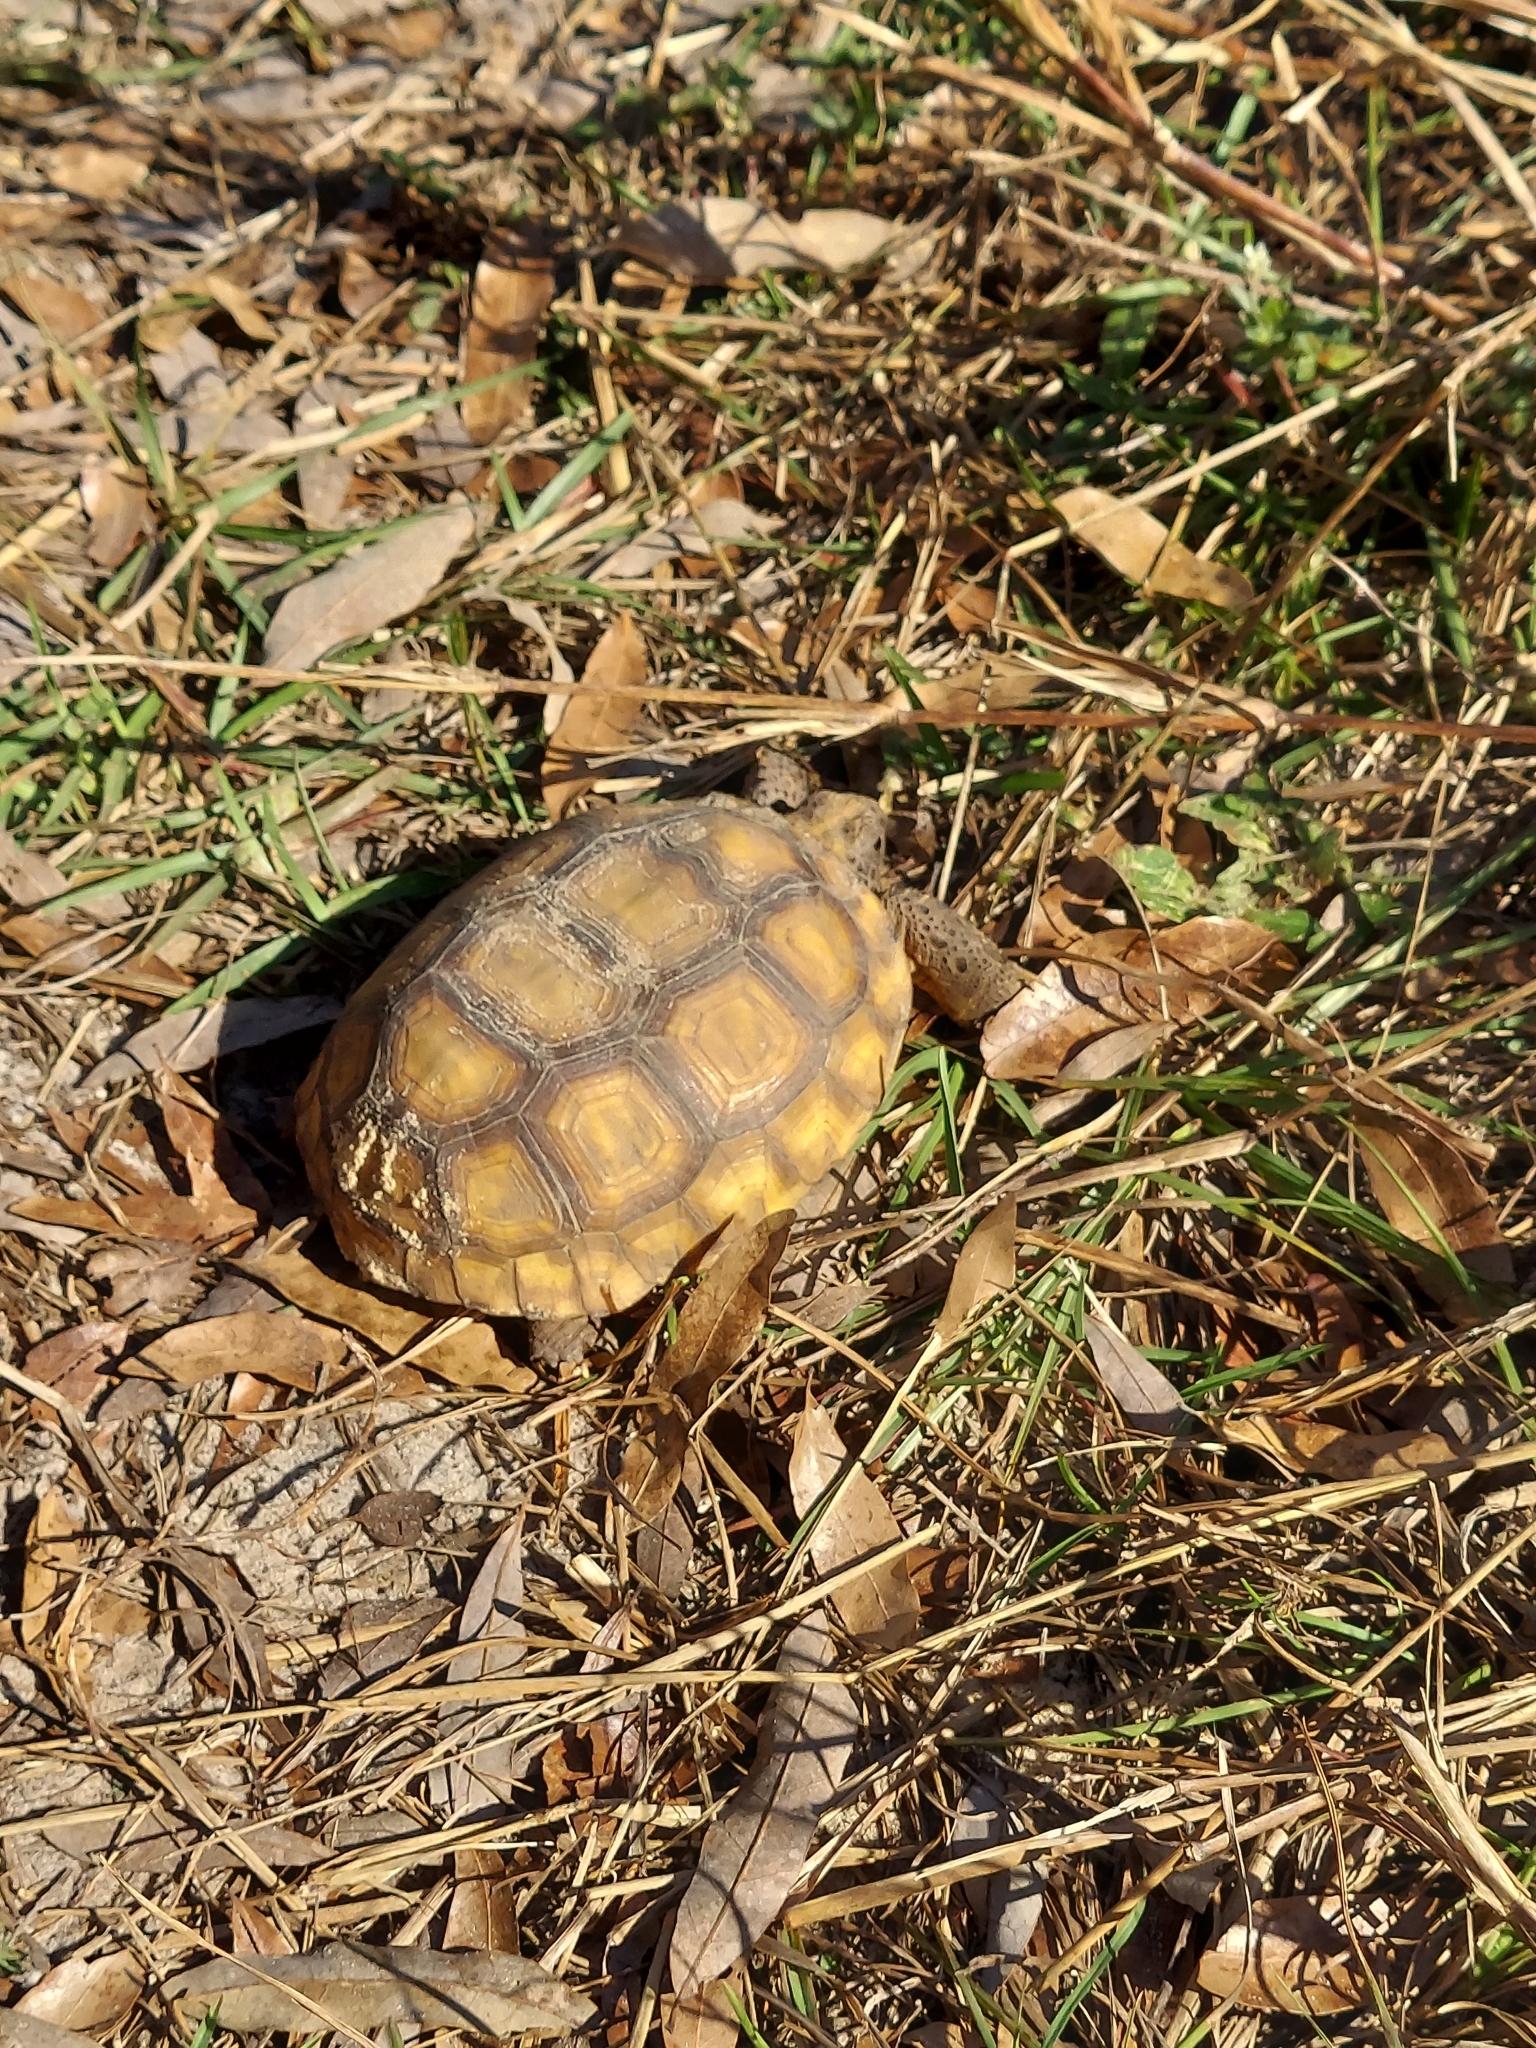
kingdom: Animalia
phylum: Chordata
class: Testudines
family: Testudinidae
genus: Gopherus
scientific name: Gopherus polyphemus
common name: Florida gopher tortoise
